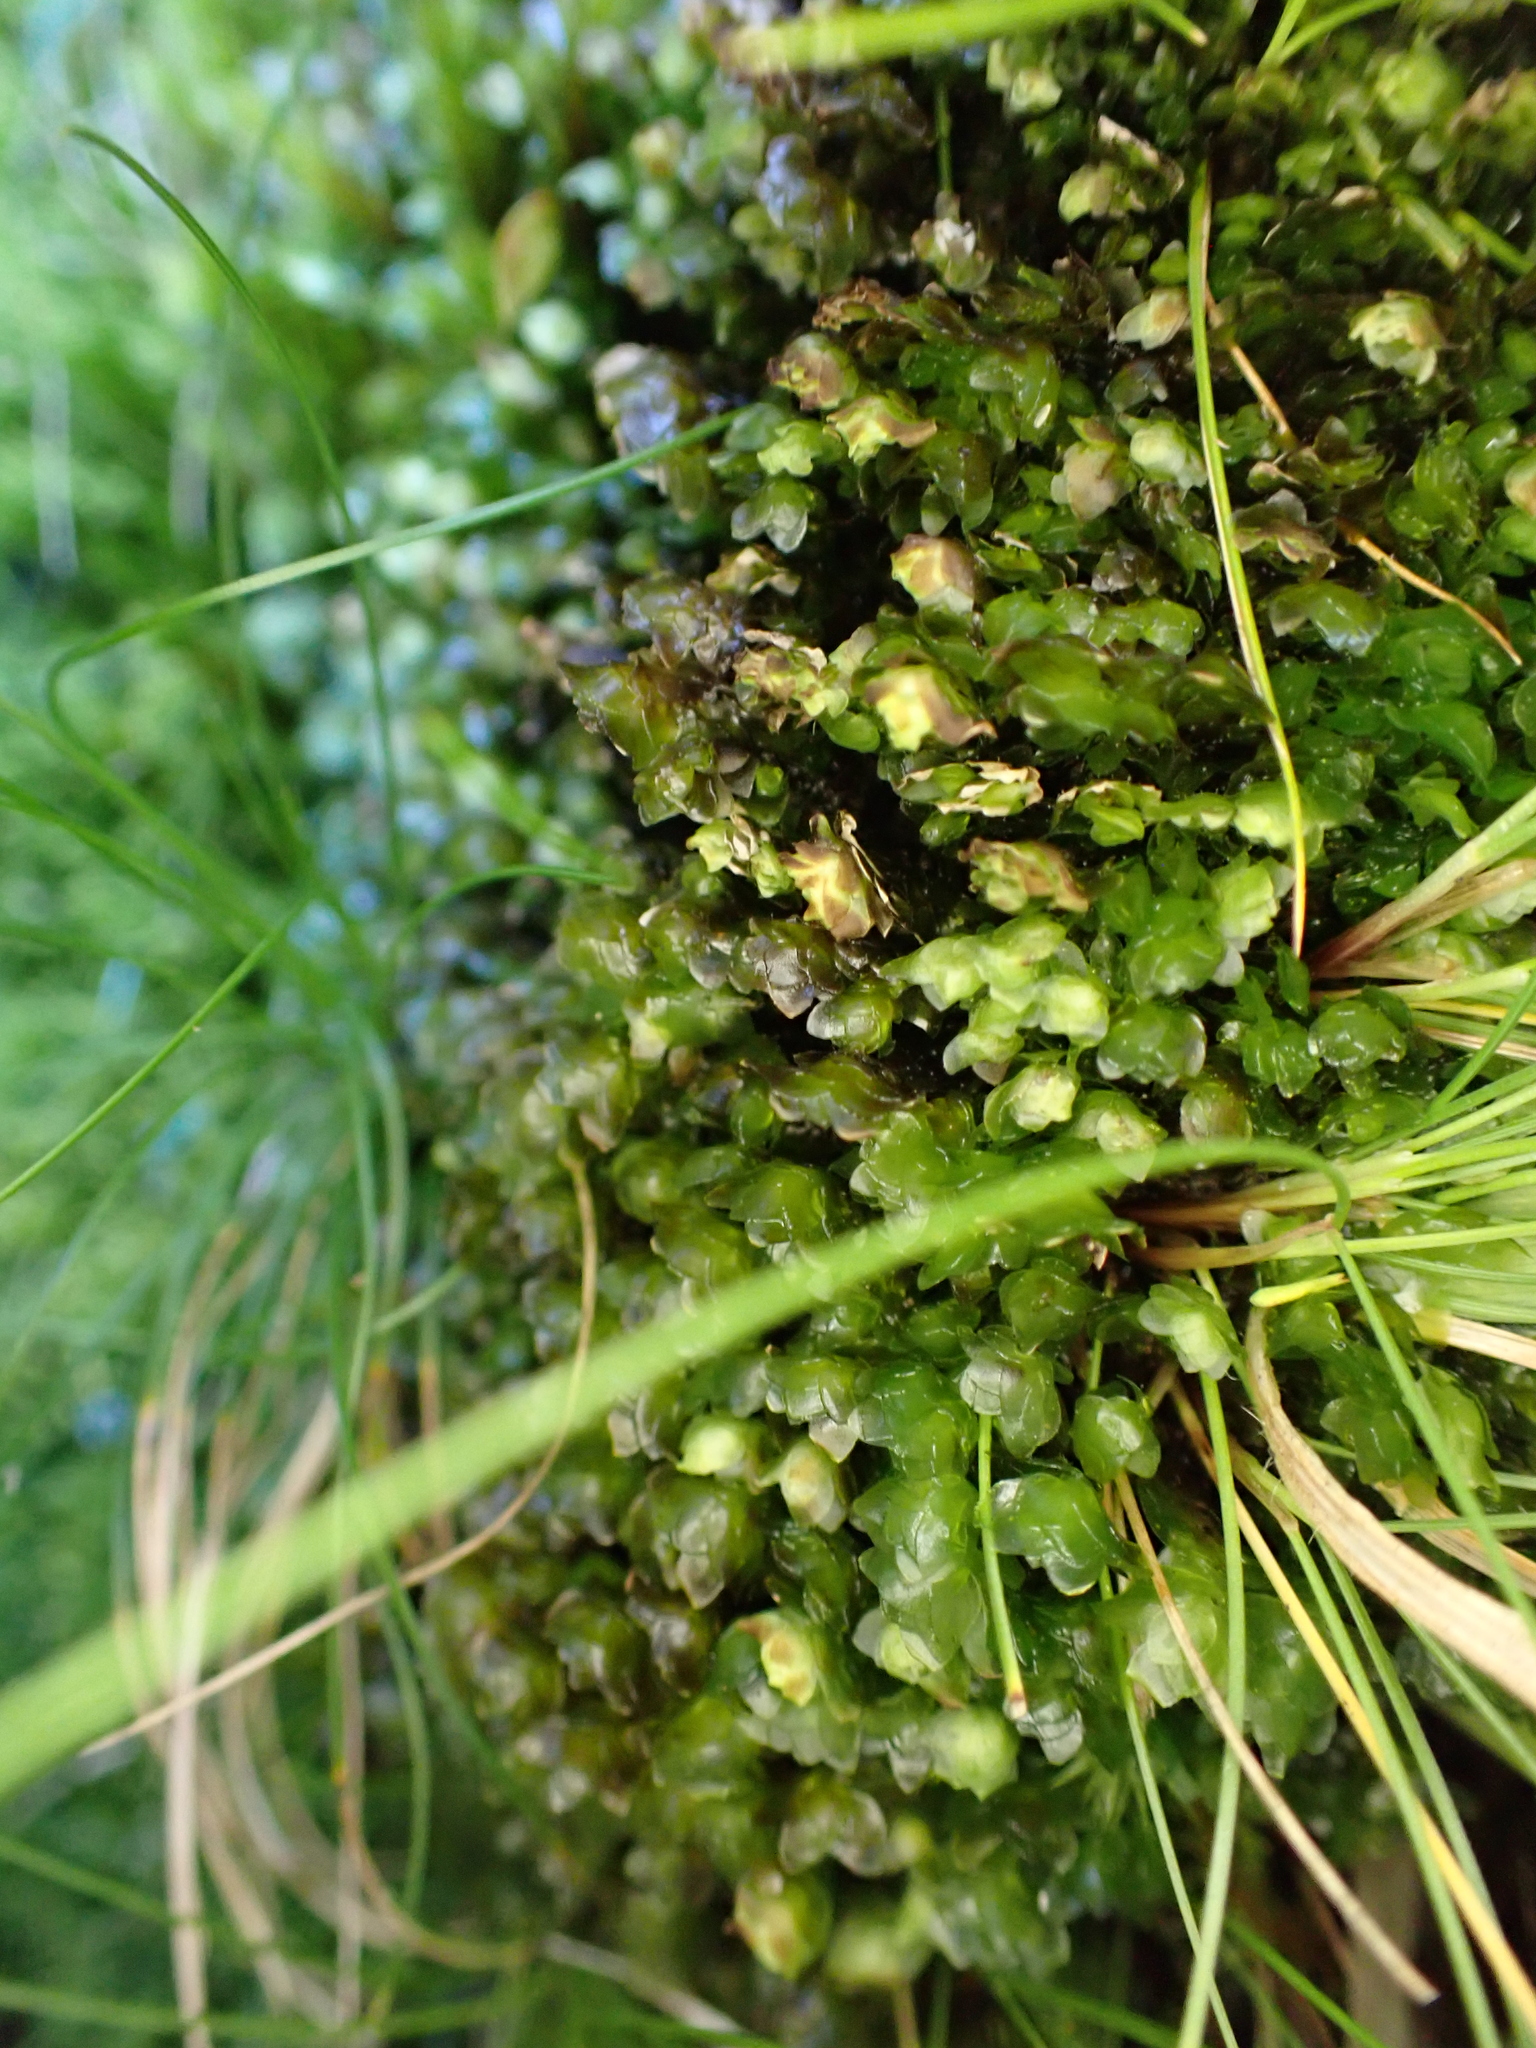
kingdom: Plantae
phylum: Bryophyta
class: Bryopsida
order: Hookeriales
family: Daltoniaceae
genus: Achrophyllum
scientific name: Achrophyllum dentatum
